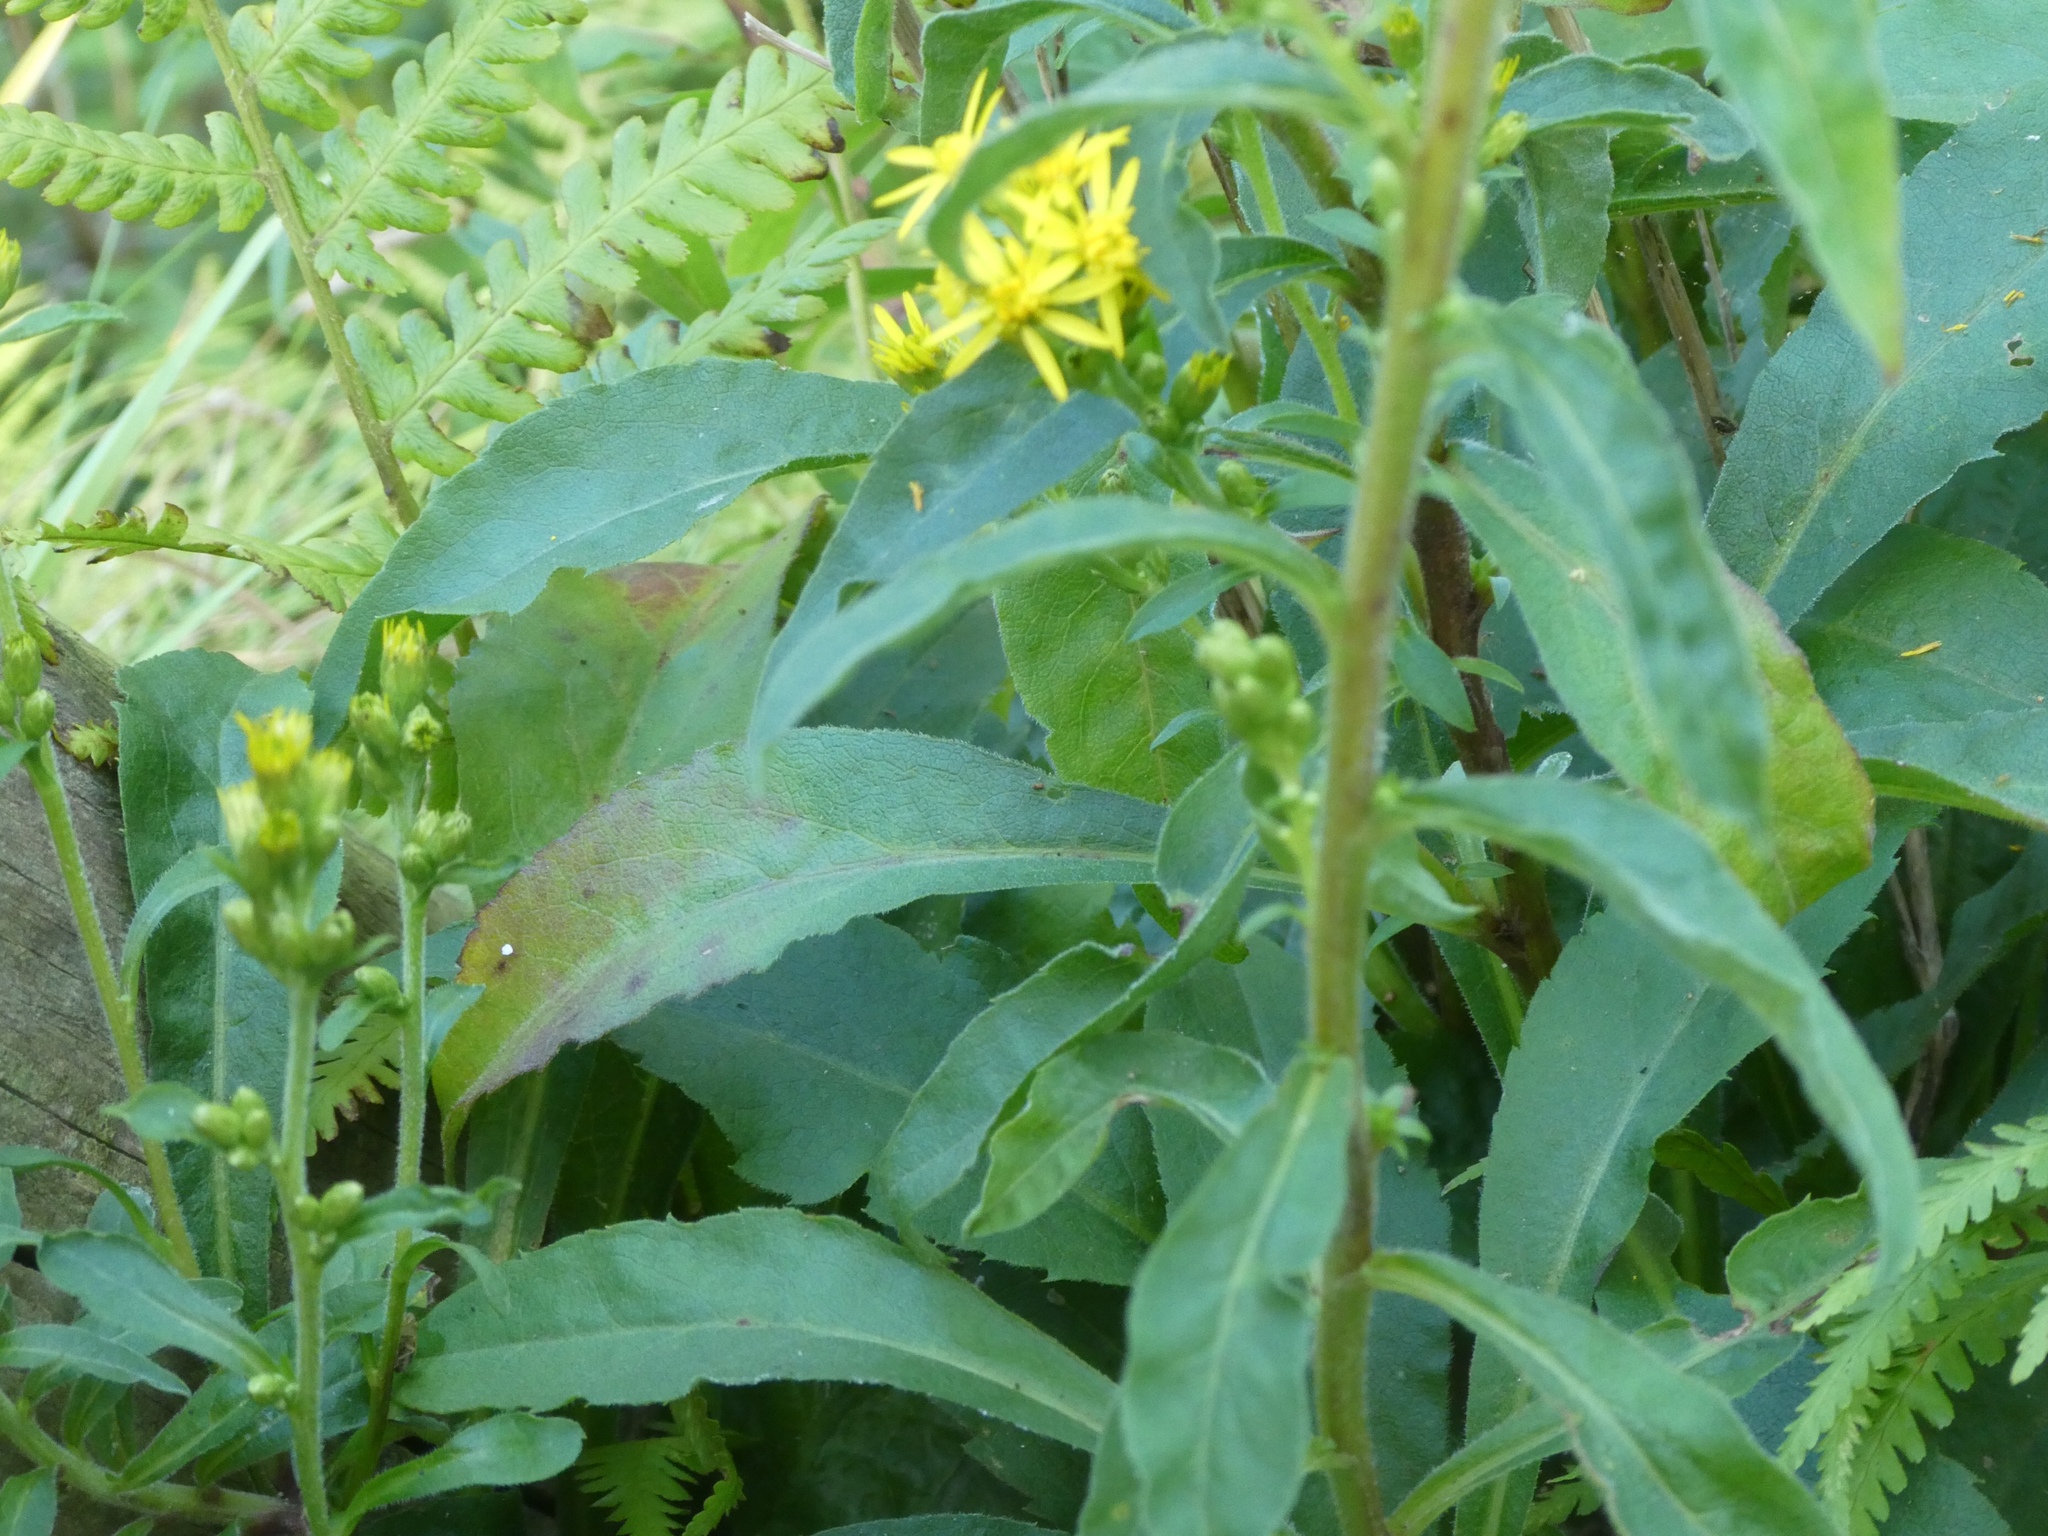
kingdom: Plantae
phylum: Tracheophyta
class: Magnoliopsida
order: Asterales
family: Asteraceae
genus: Solidago
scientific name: Solidago virgaurea
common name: Goldenrod
